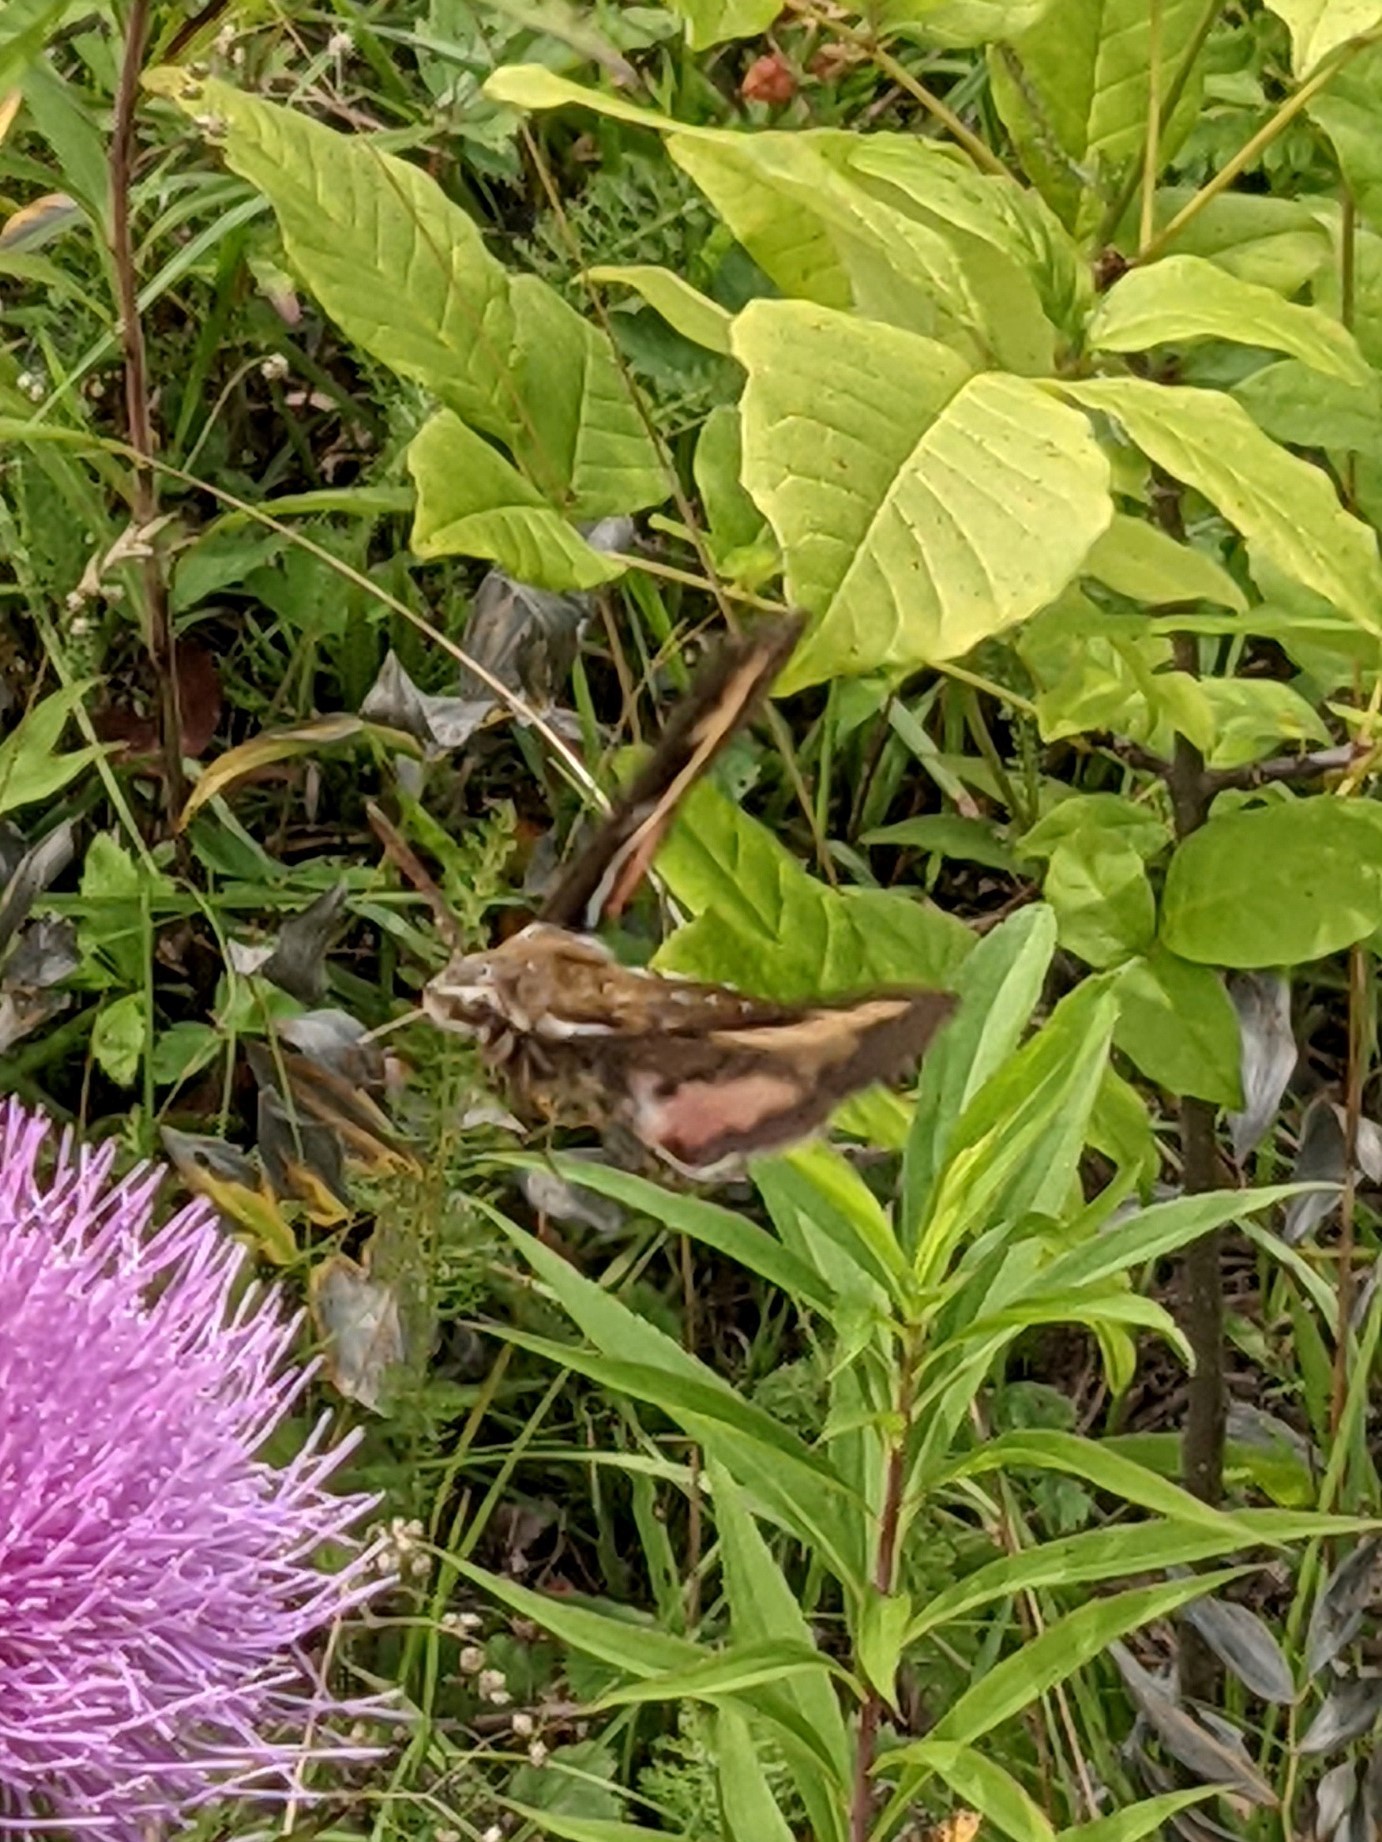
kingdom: Animalia
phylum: Arthropoda
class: Insecta
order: Lepidoptera
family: Sphingidae
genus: Hyles
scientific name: Hyles gallii
